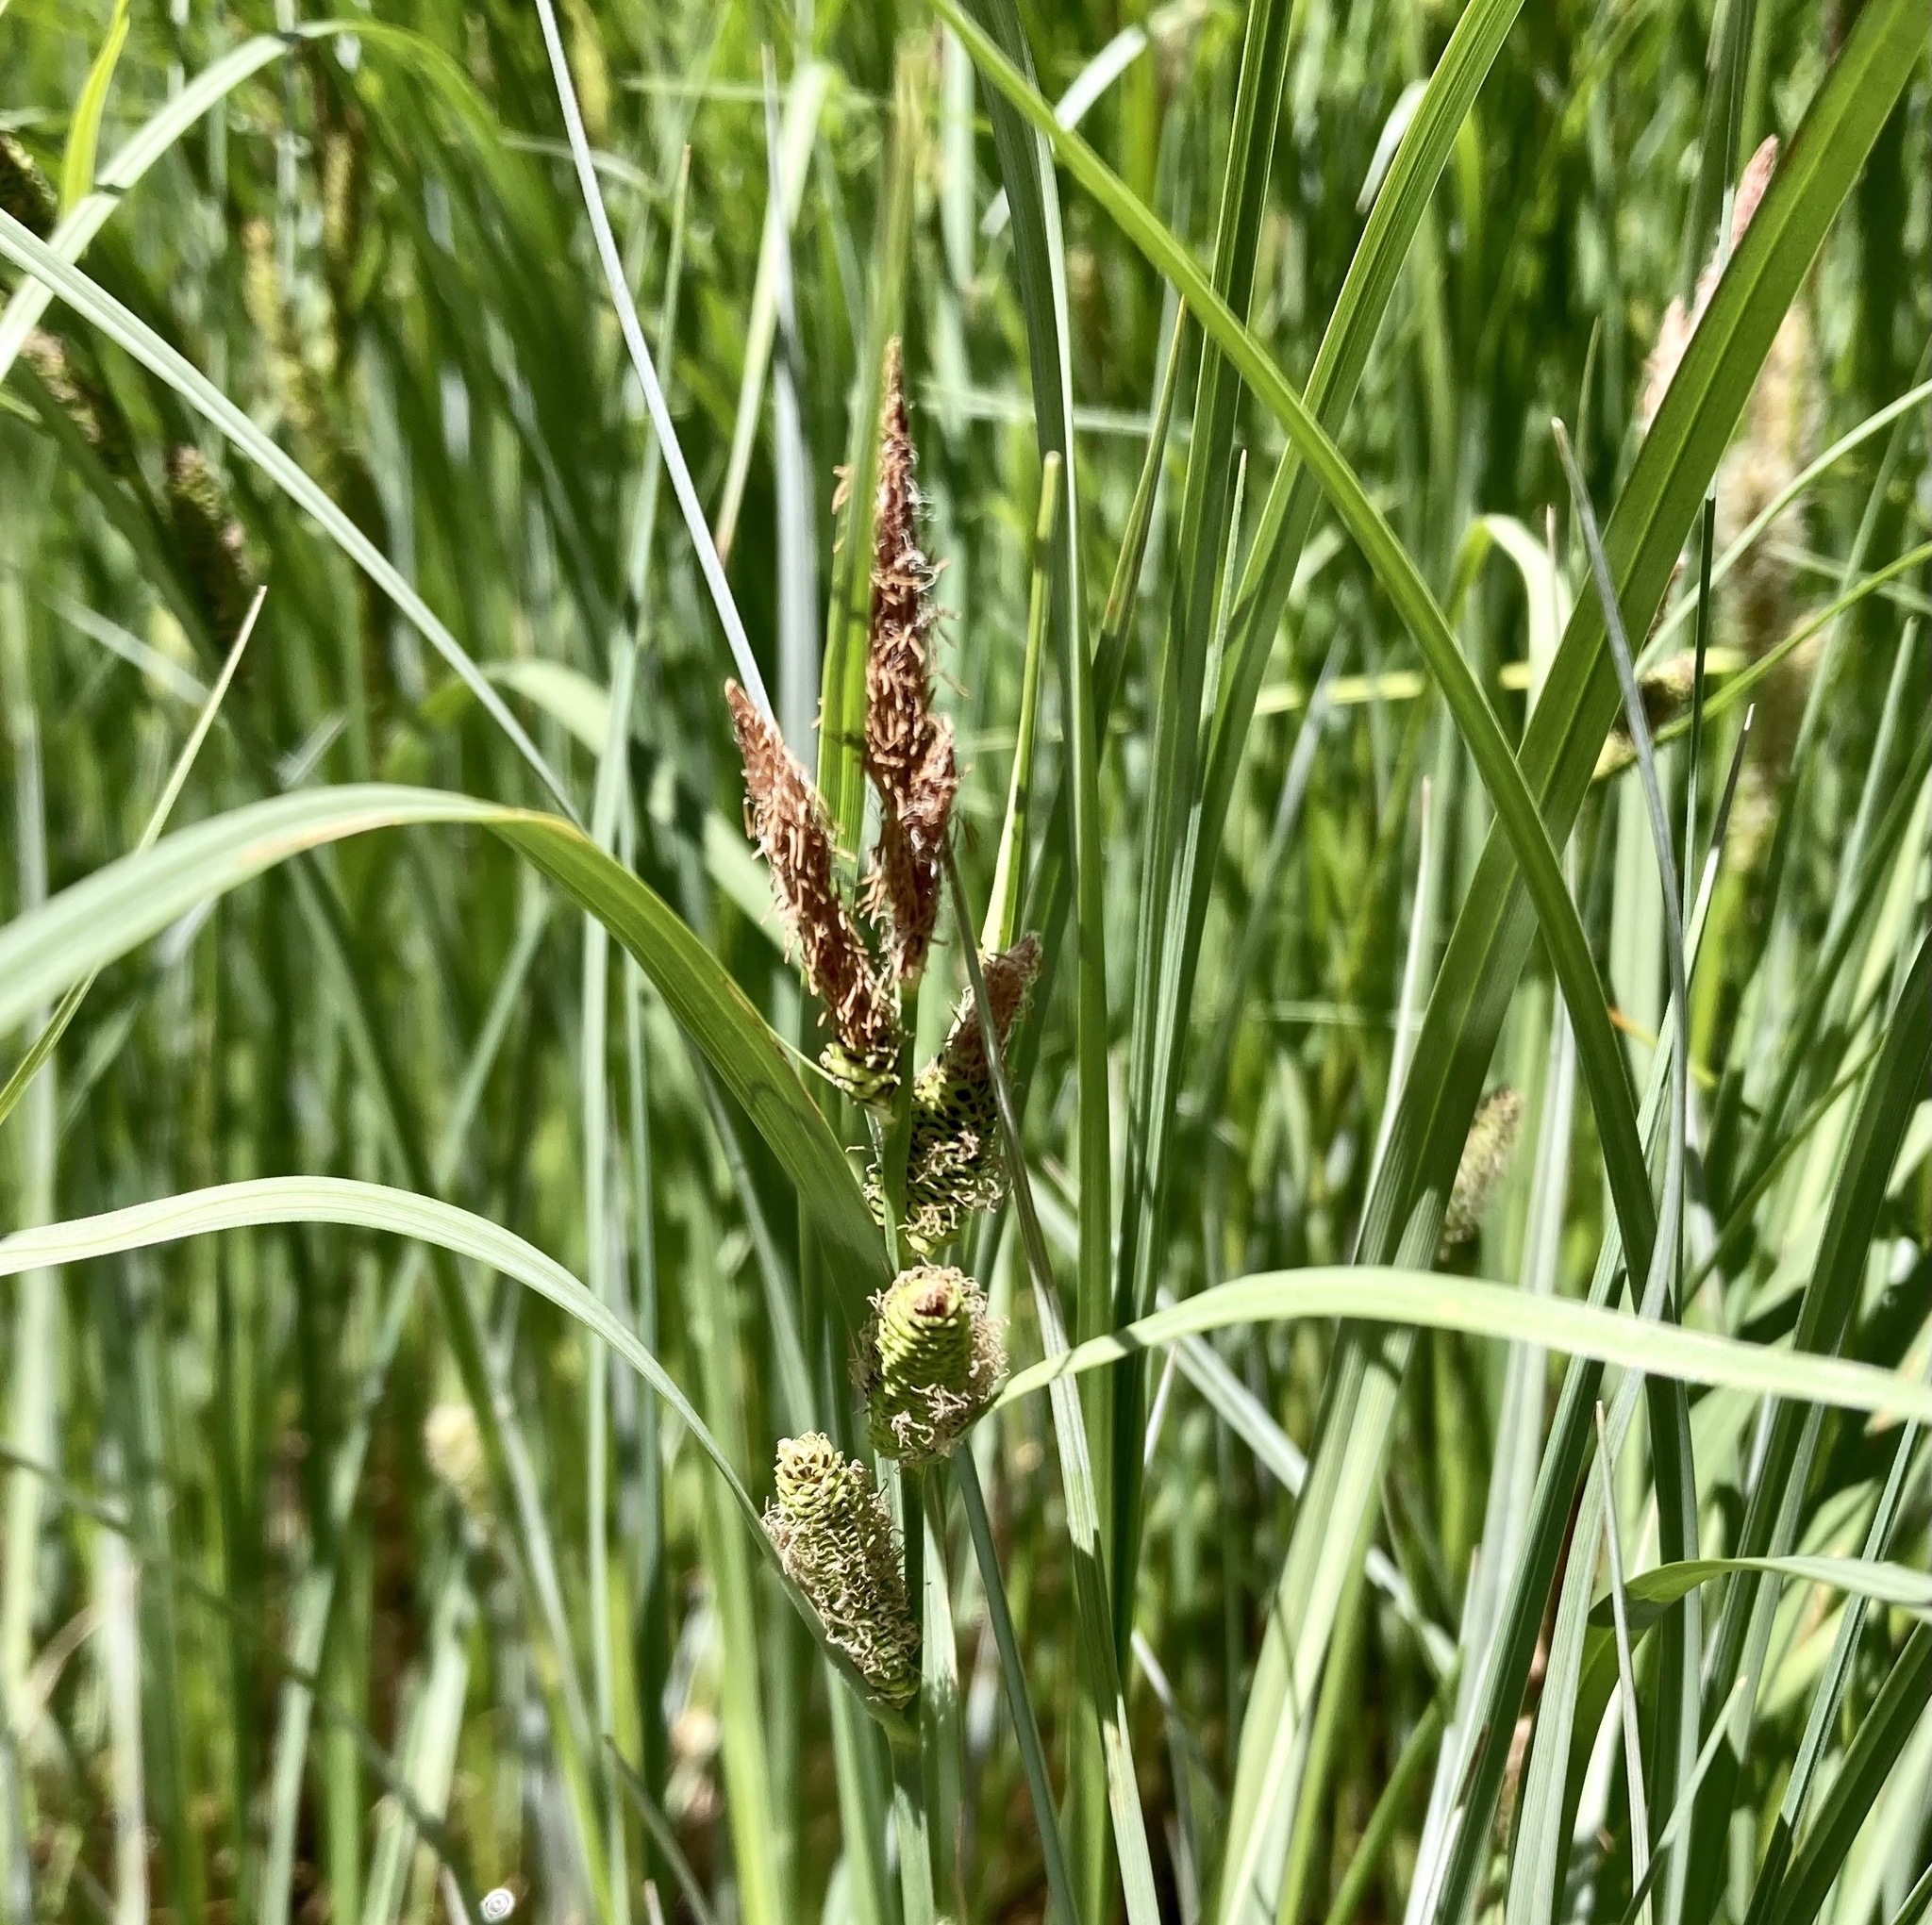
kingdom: Plantae
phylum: Tracheophyta
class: Liliopsida
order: Poales
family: Cyperaceae
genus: Carex
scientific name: Carex aquatilis
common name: Water sedge
